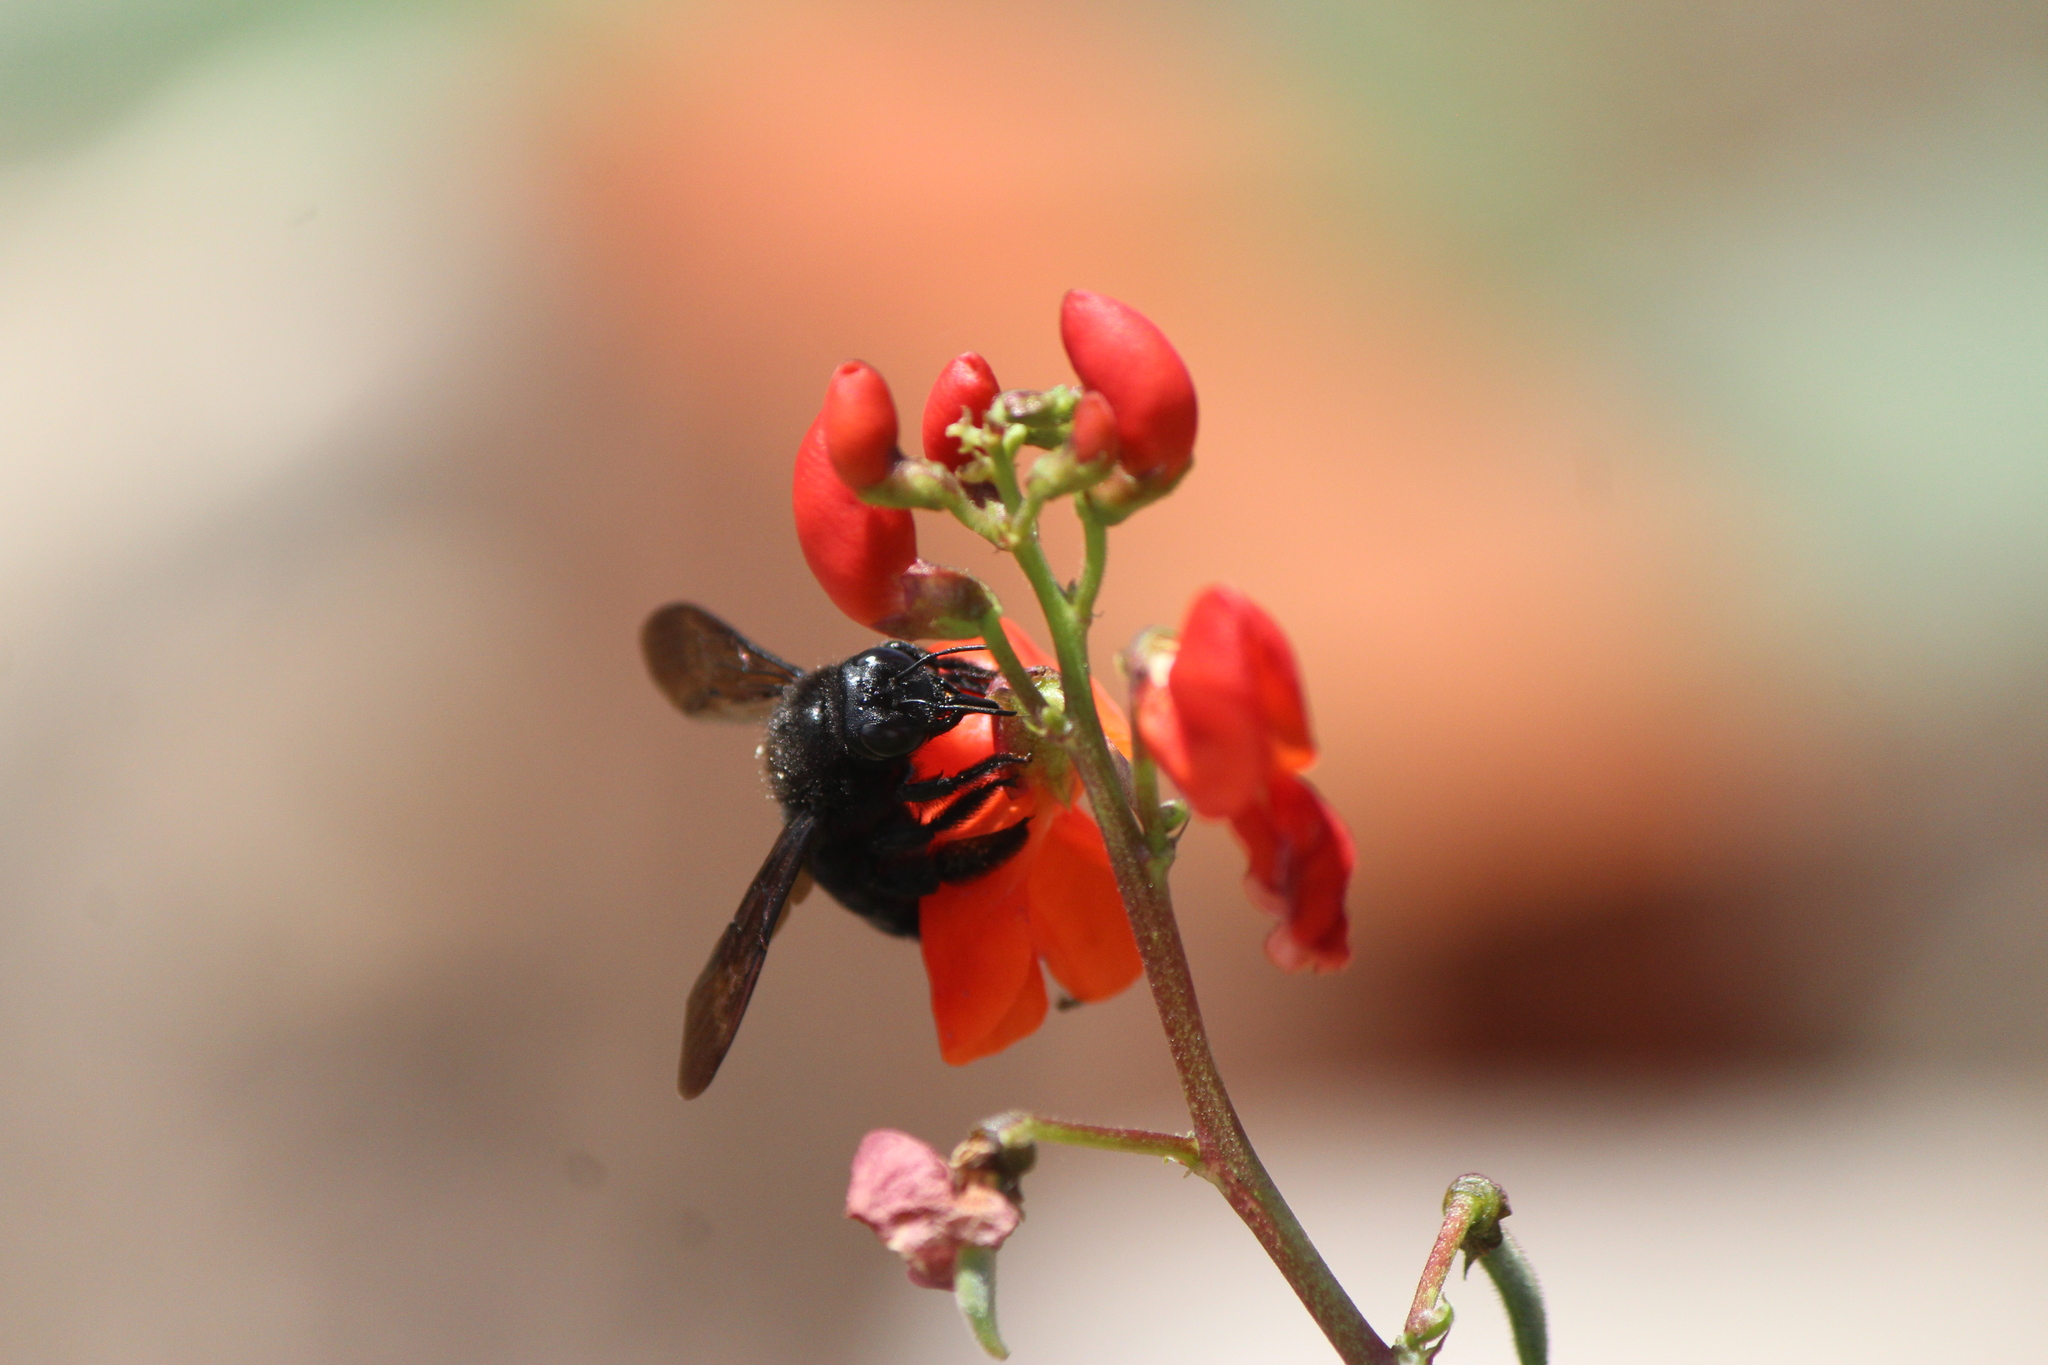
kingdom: Animalia
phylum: Arthropoda
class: Insecta
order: Hymenoptera
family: Apidae
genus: Xylocopa
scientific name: Xylocopa sonorina
